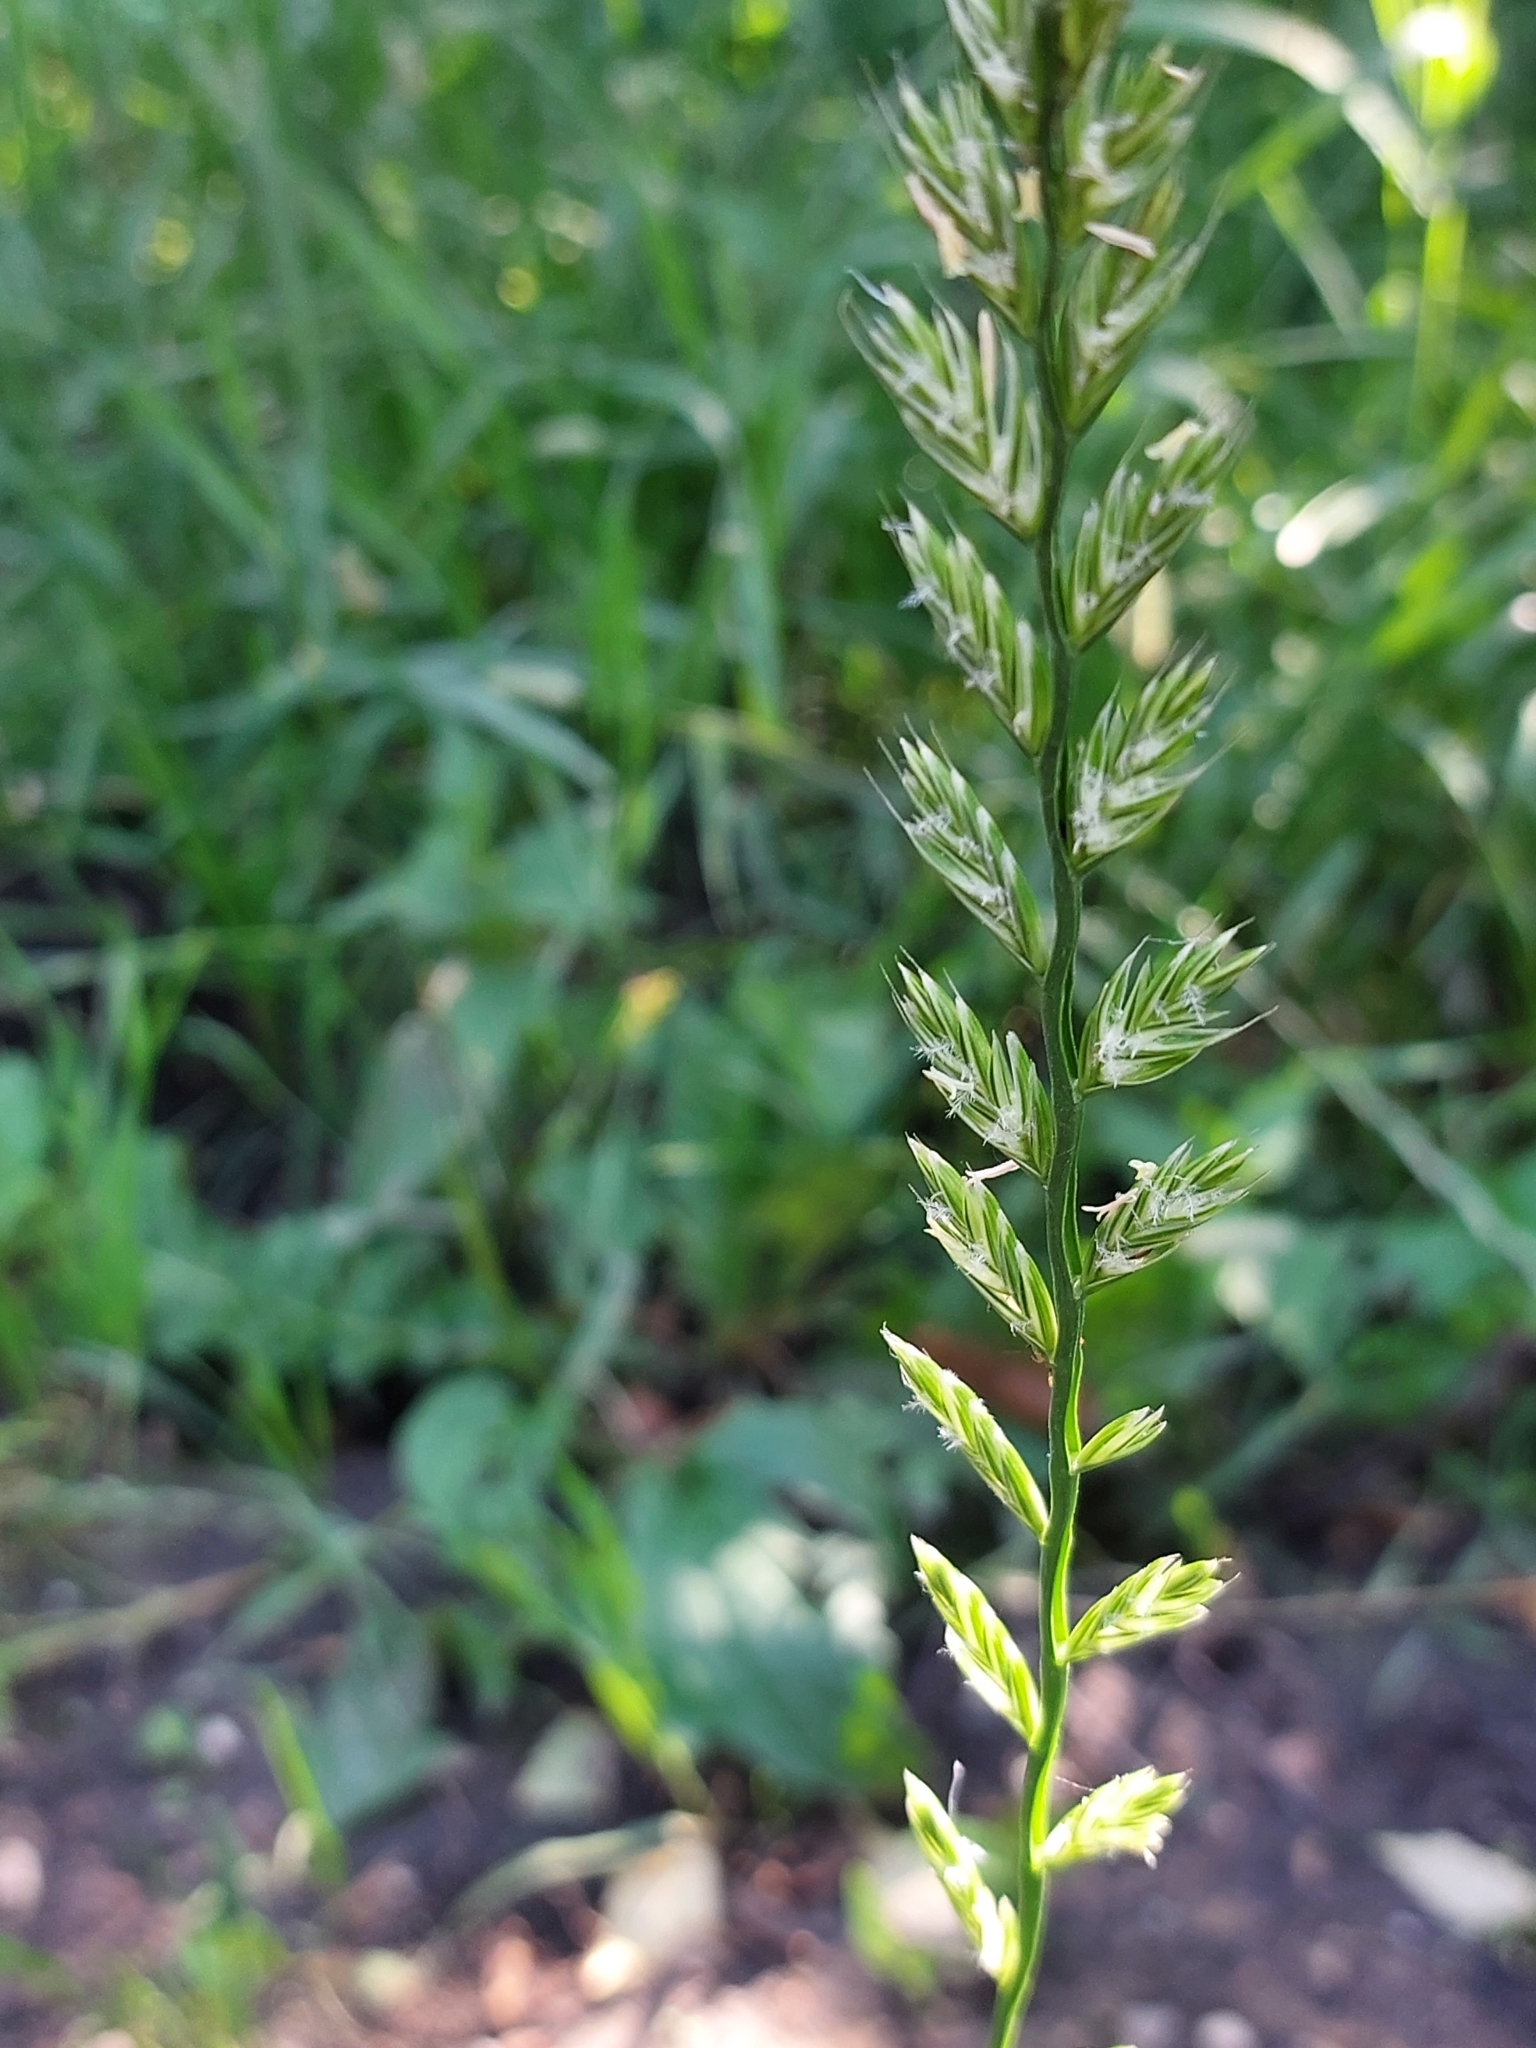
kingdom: Plantae
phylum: Tracheophyta
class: Liliopsida
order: Poales
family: Poaceae
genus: Lolium
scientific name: Lolium multiflorum
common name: Annual ryegrass
